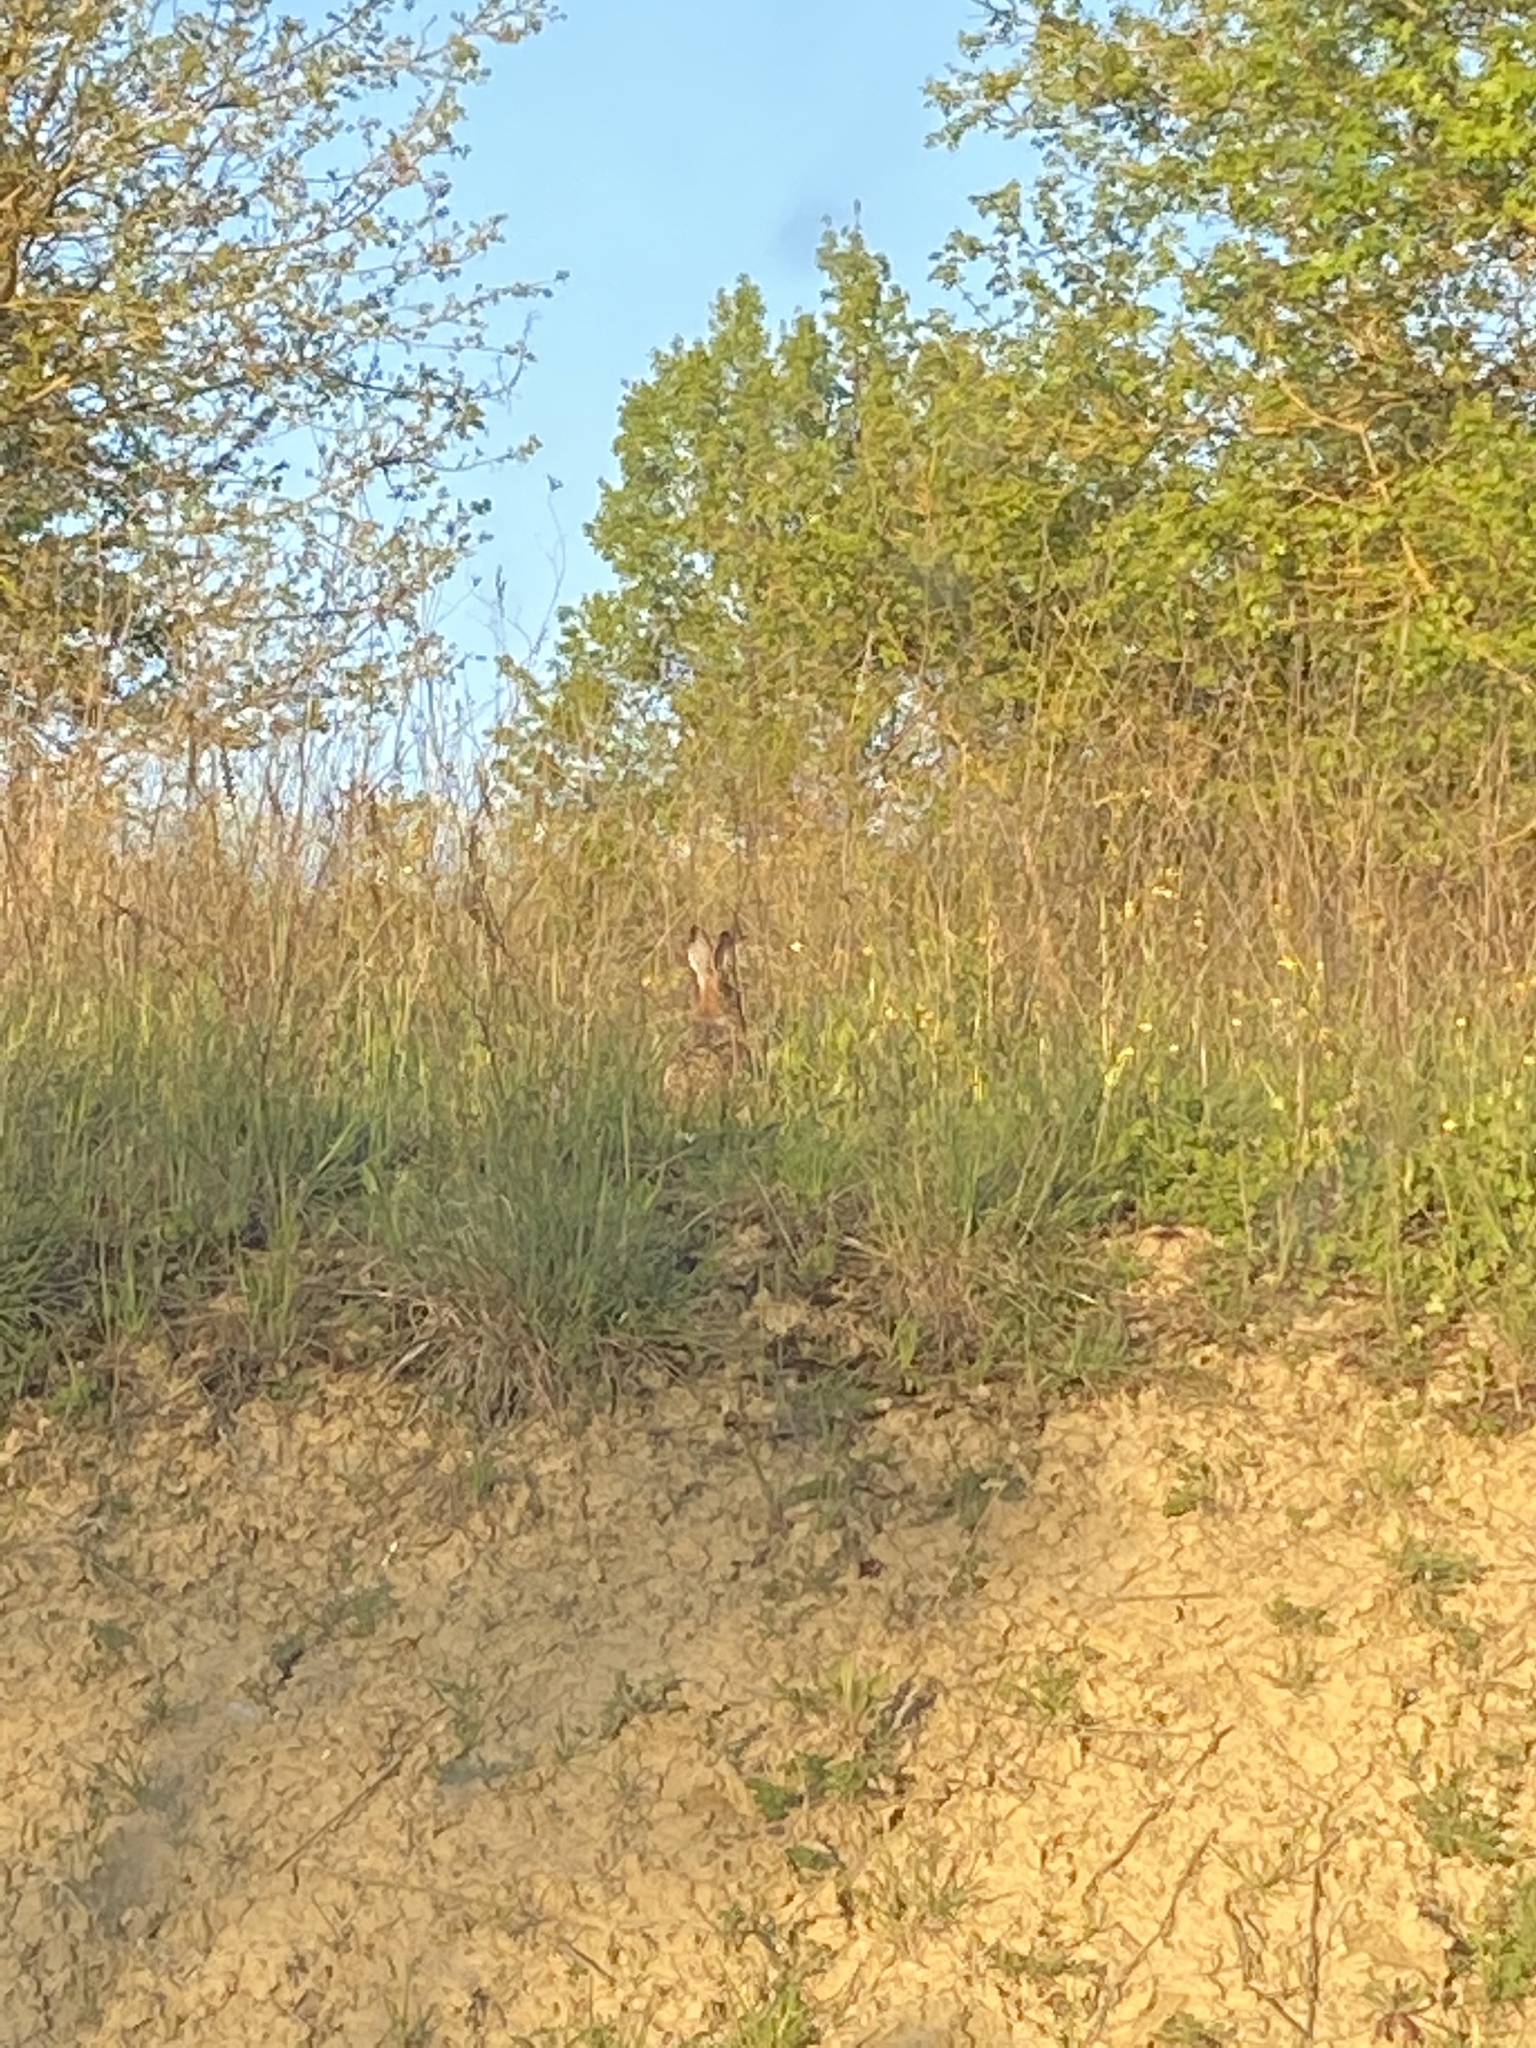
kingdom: Animalia
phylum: Chordata
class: Mammalia
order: Lagomorpha
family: Leporidae
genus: Lepus
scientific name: Lepus europaeus
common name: European hare
